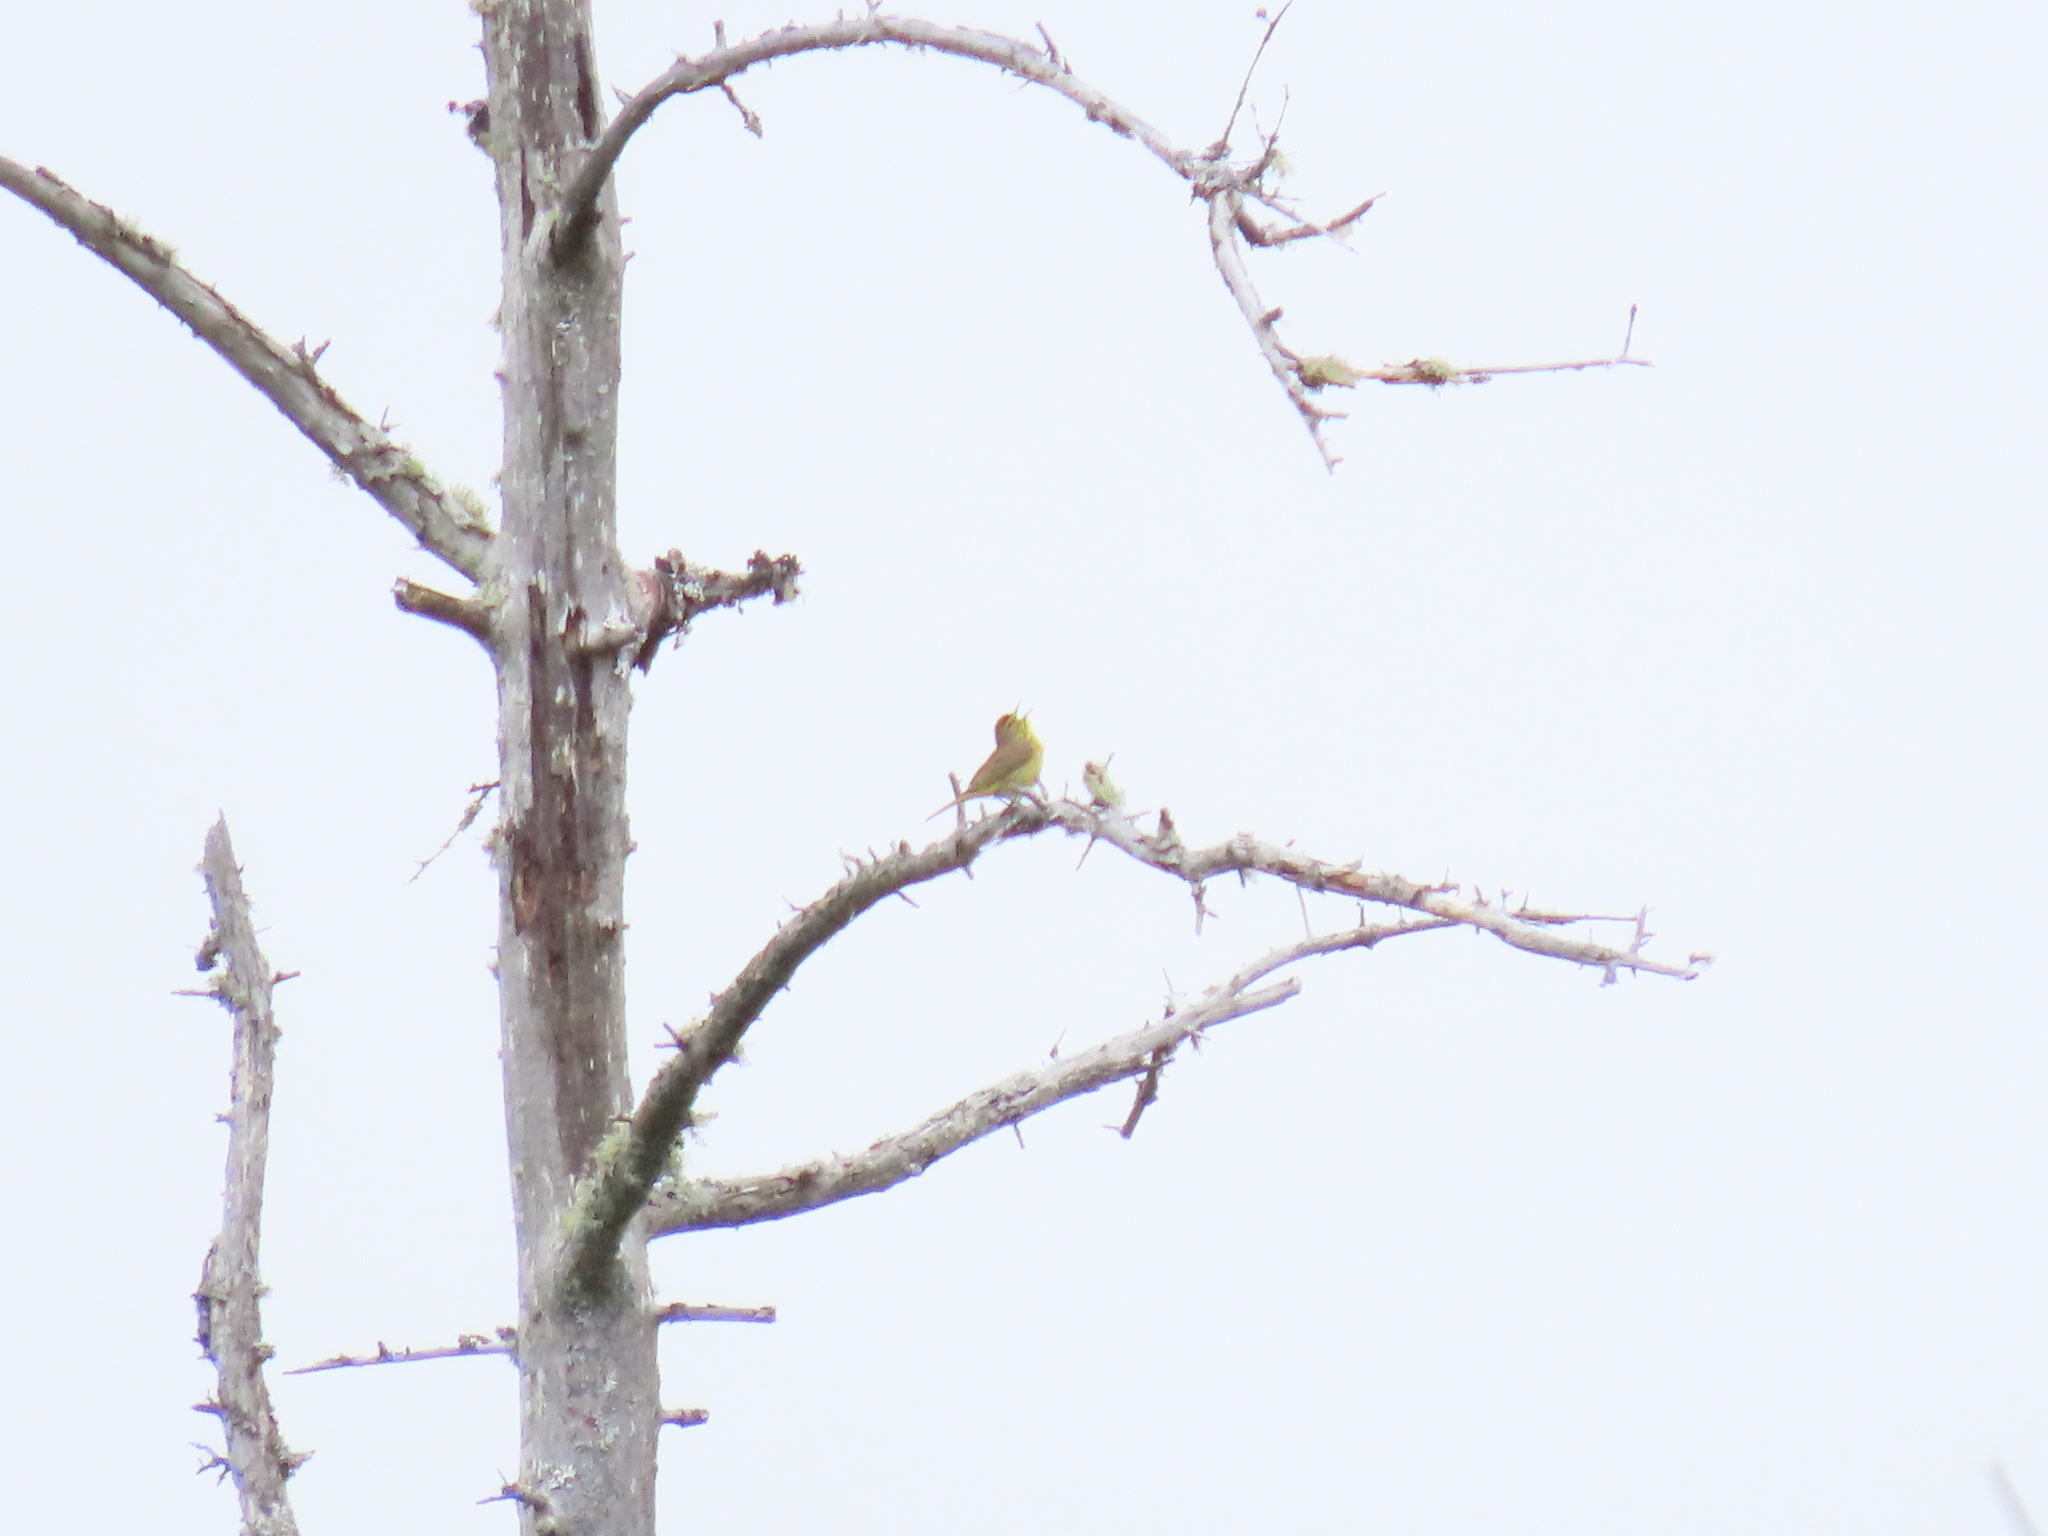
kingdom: Animalia
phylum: Chordata
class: Aves
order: Passeriformes
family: Parulidae
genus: Setophaga
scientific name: Setophaga palmarum
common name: Palm warbler
